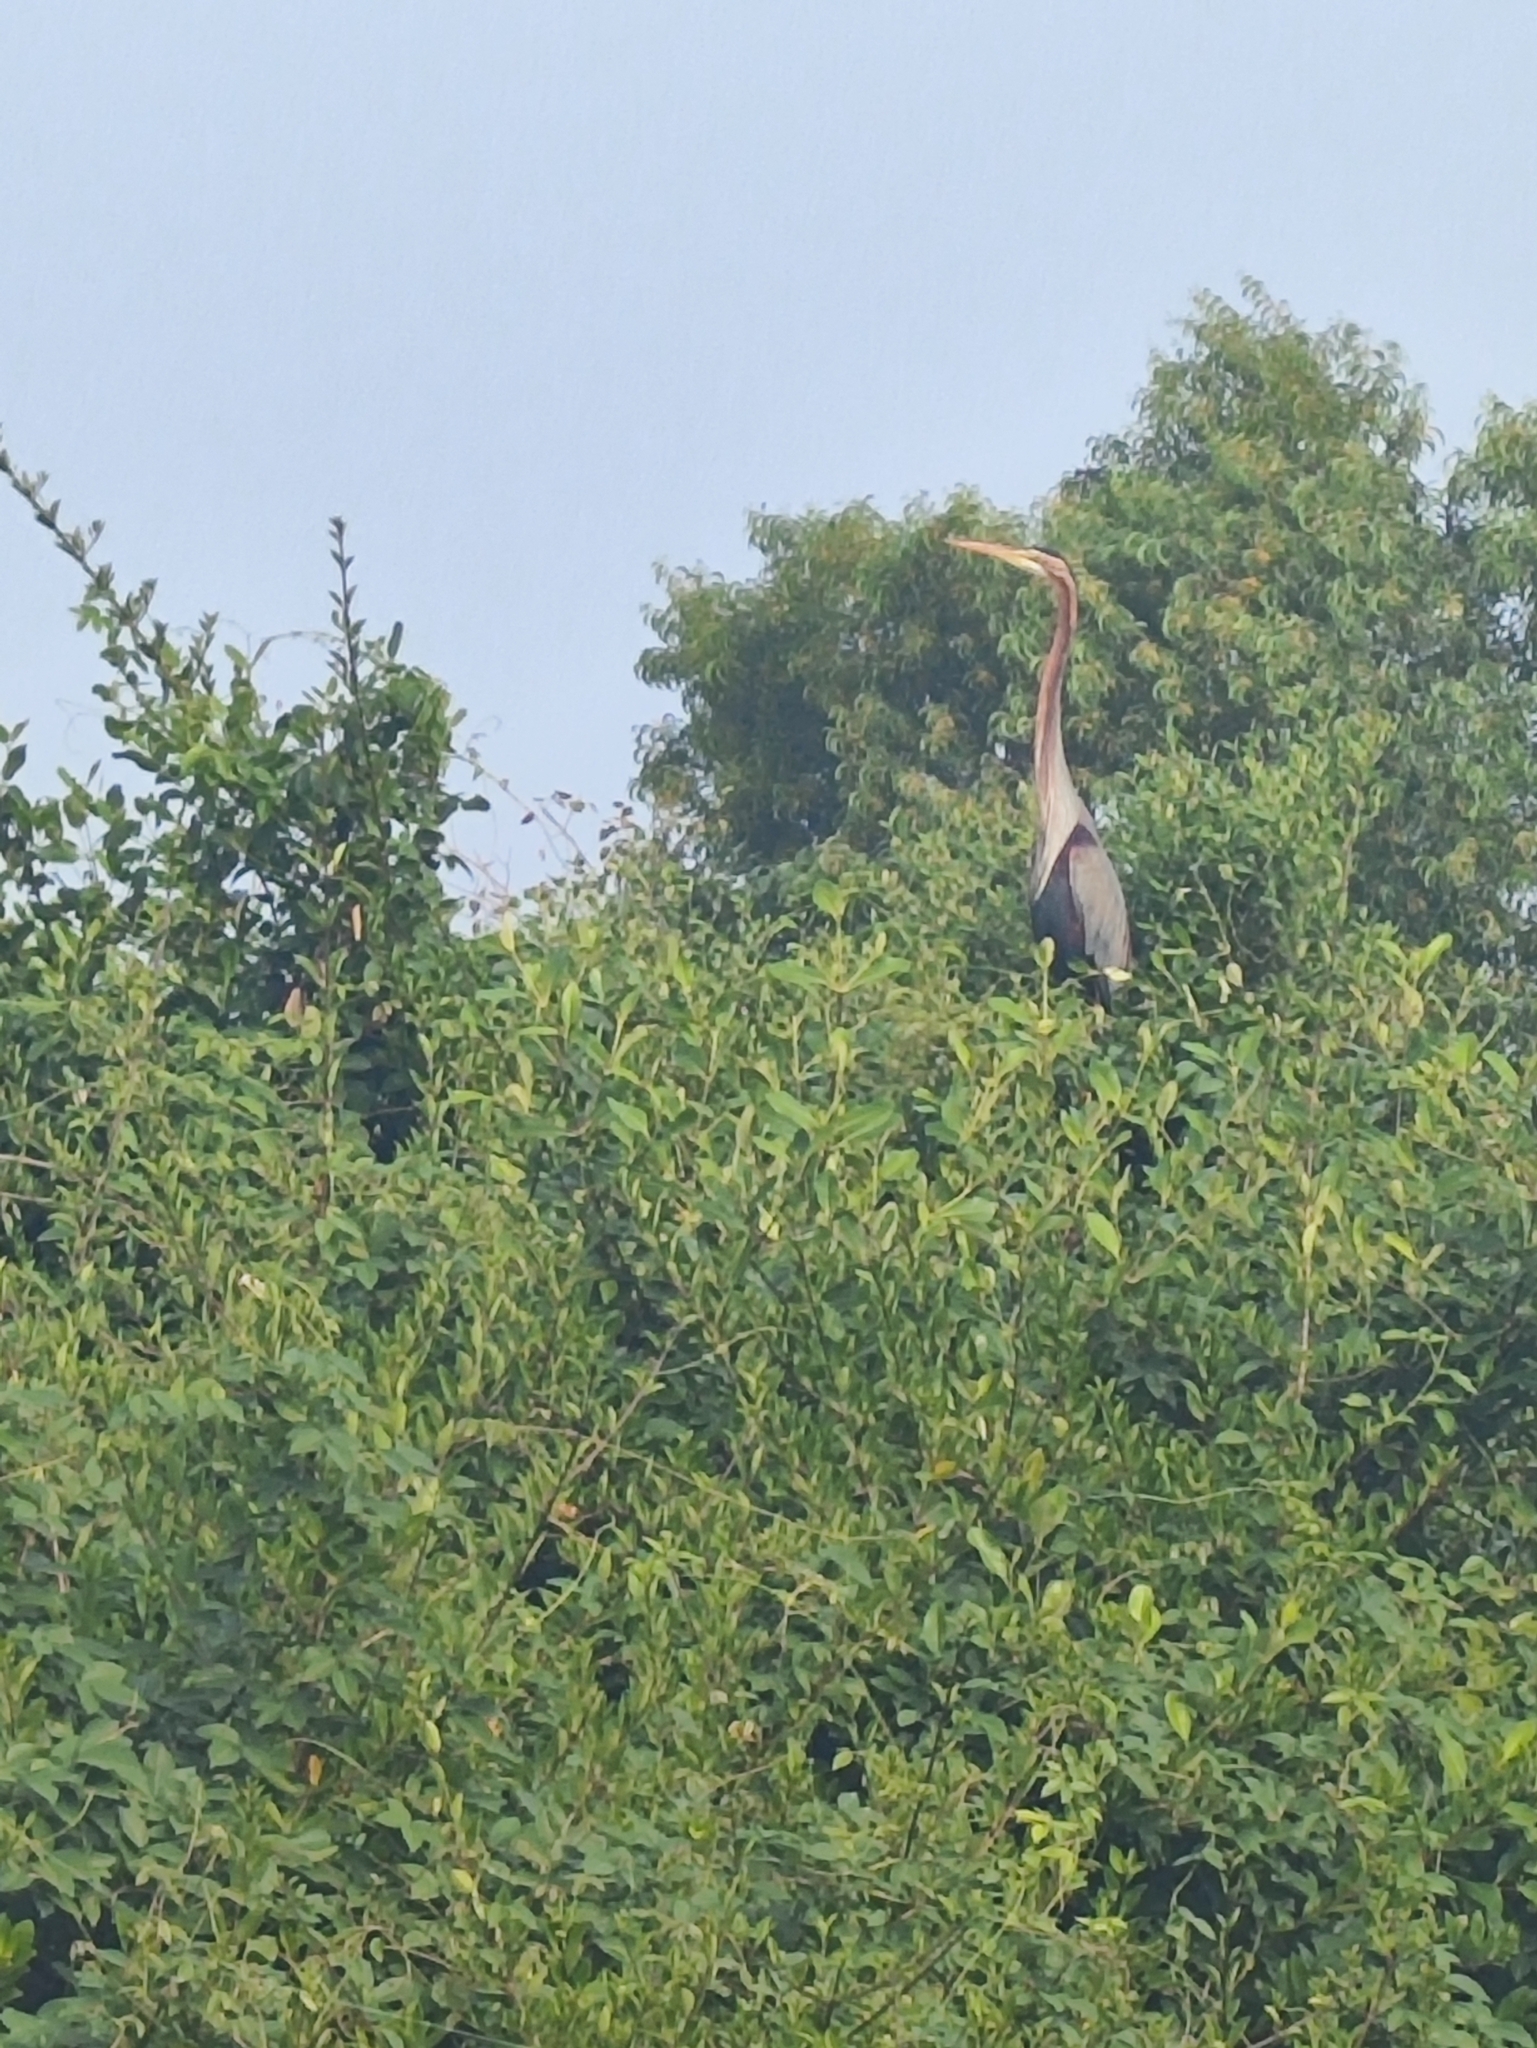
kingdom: Animalia
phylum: Chordata
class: Aves
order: Pelecaniformes
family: Ardeidae
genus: Ardea
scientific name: Ardea purpurea
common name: Purple heron
